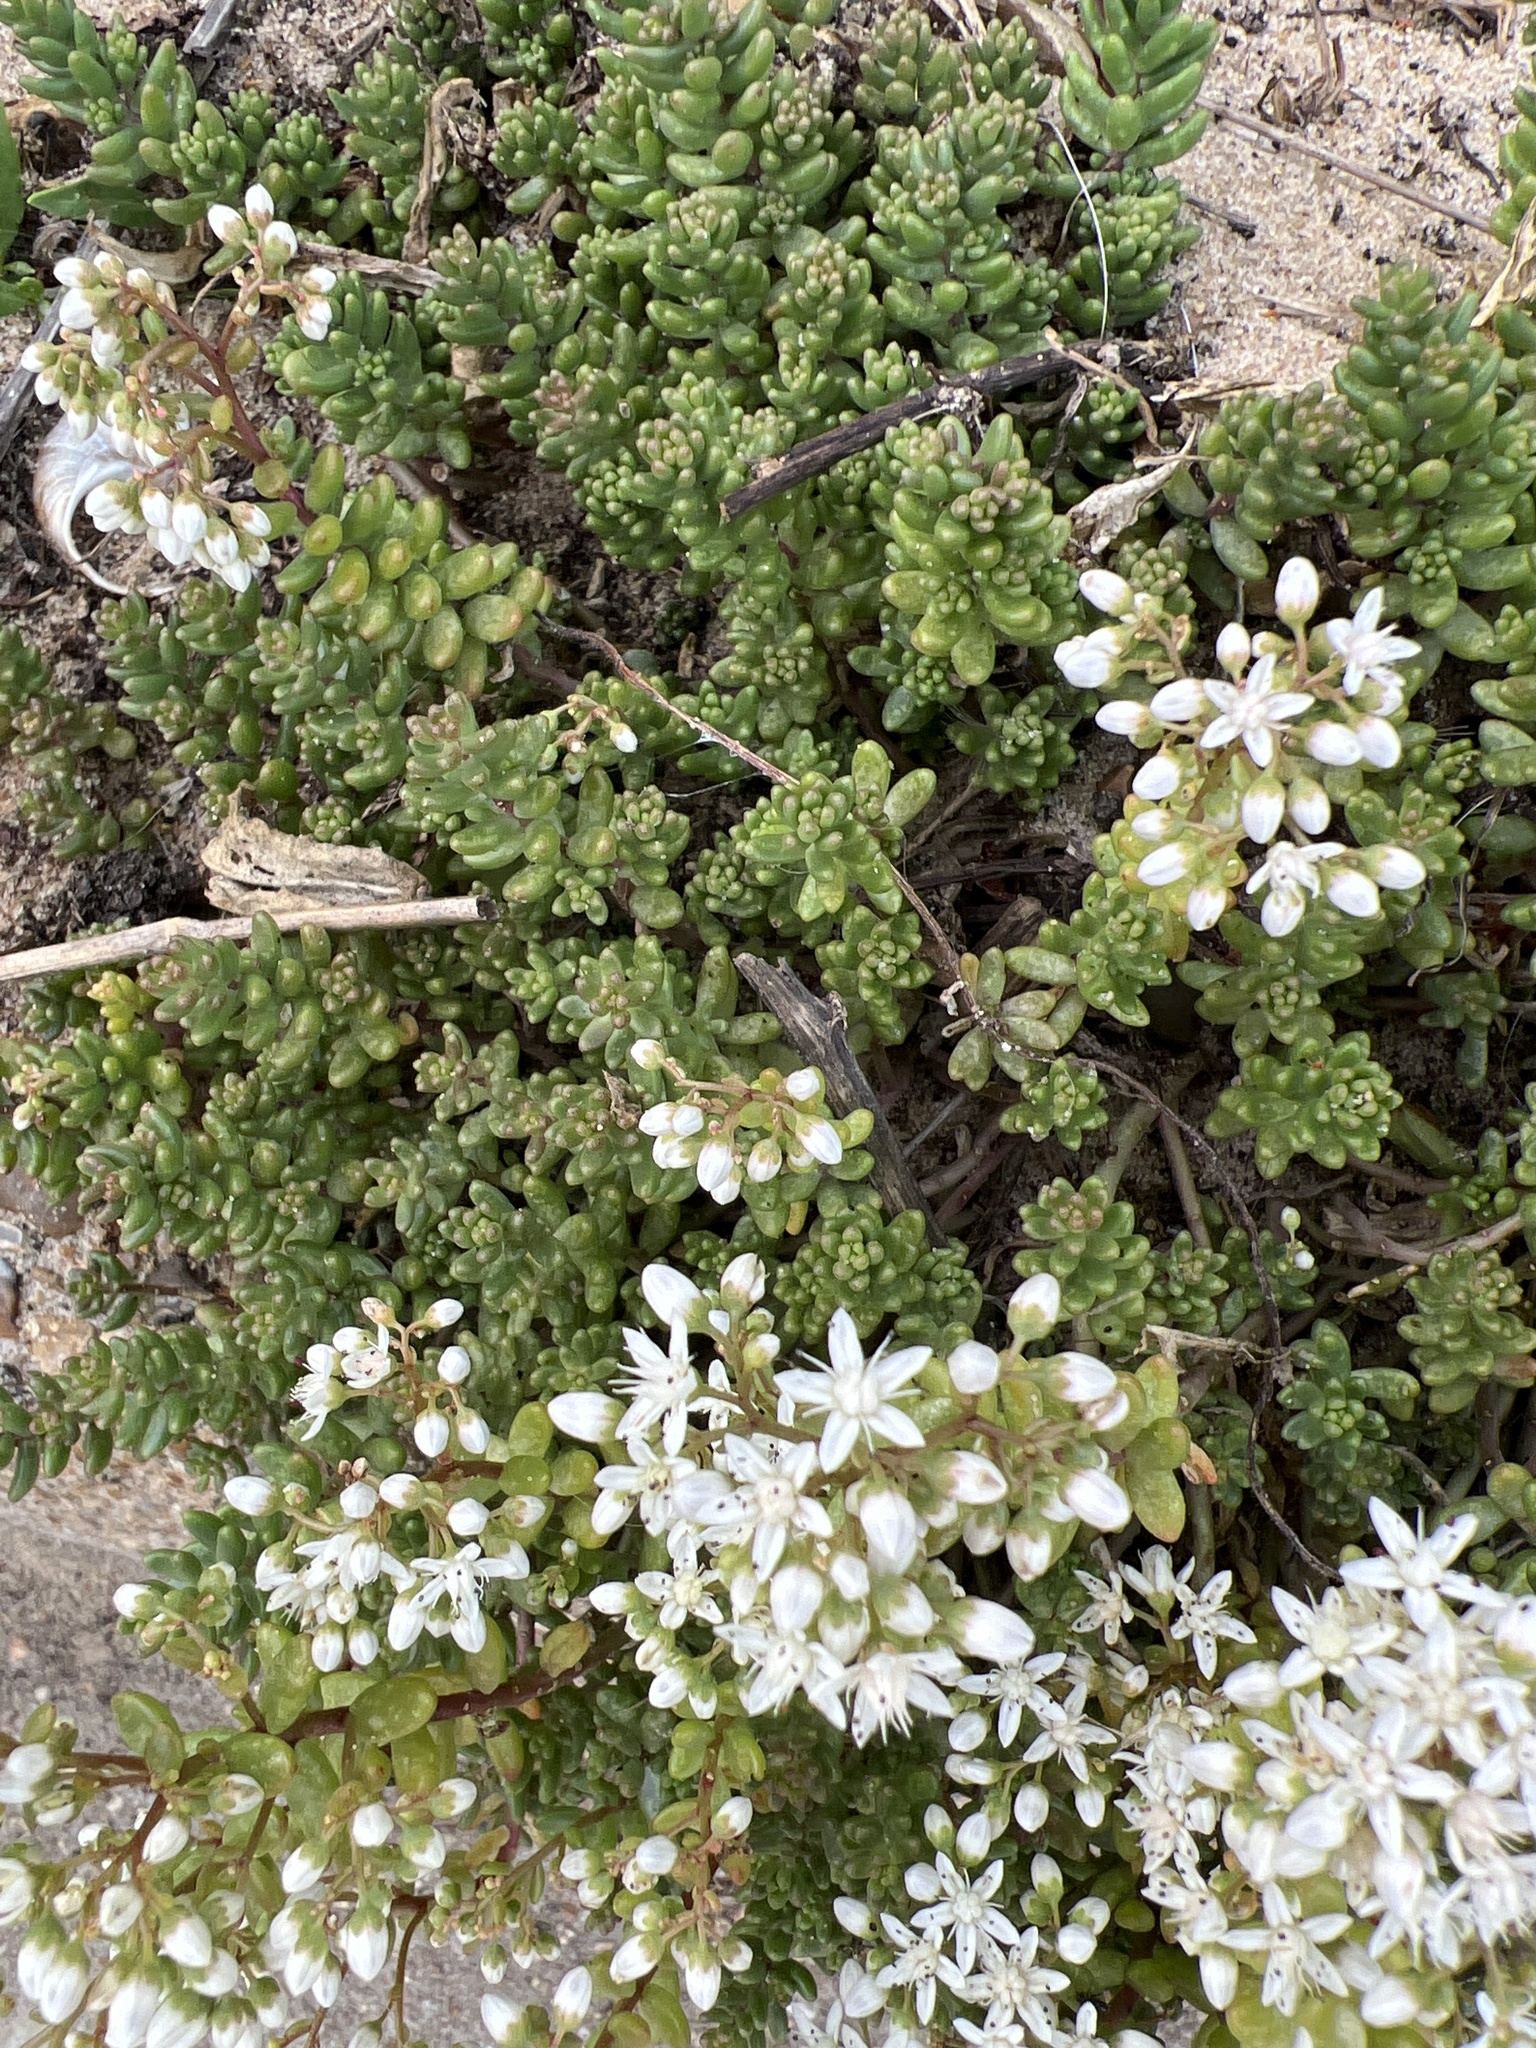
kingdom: Plantae
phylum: Tracheophyta
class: Magnoliopsida
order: Saxifragales
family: Crassulaceae
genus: Sedum
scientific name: Sedum album
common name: White stonecrop
